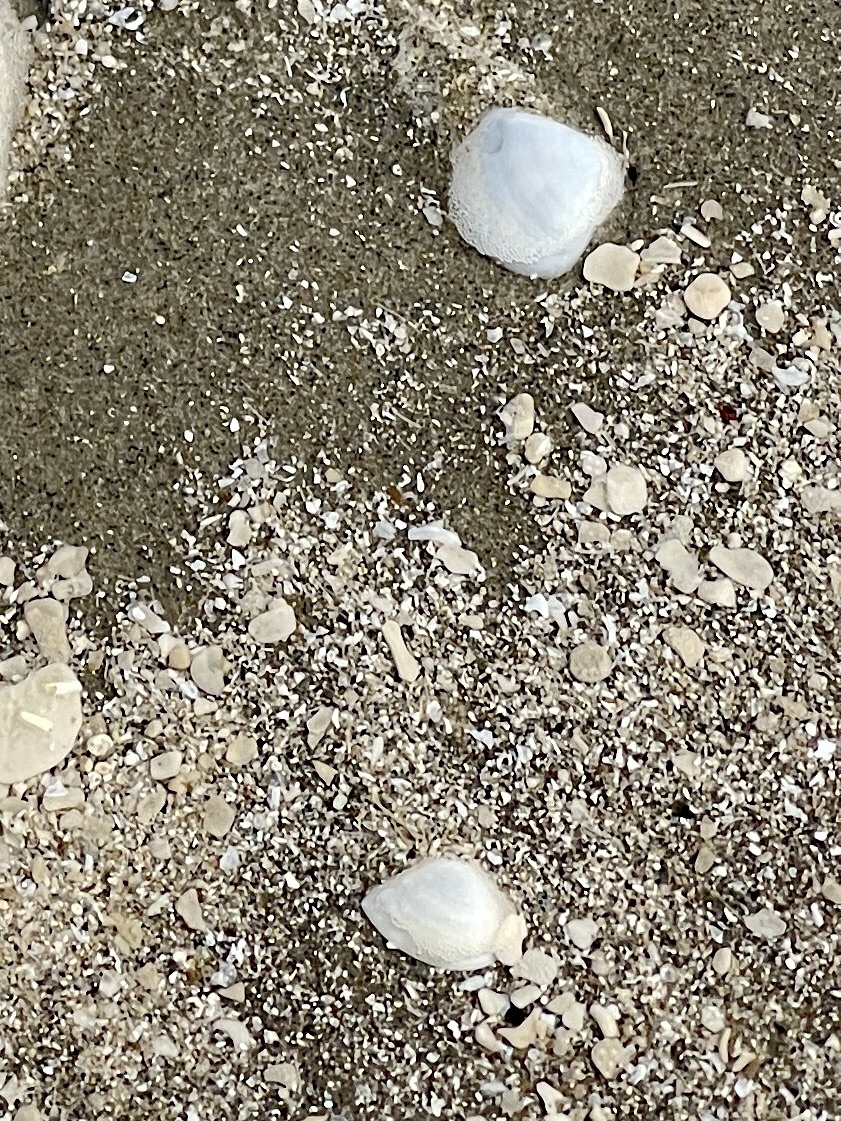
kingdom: Animalia
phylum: Mollusca
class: Bivalvia
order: Venerida
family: Mactridae
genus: Mulinia
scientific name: Mulinia lateralis
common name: Dwarf surfclam
